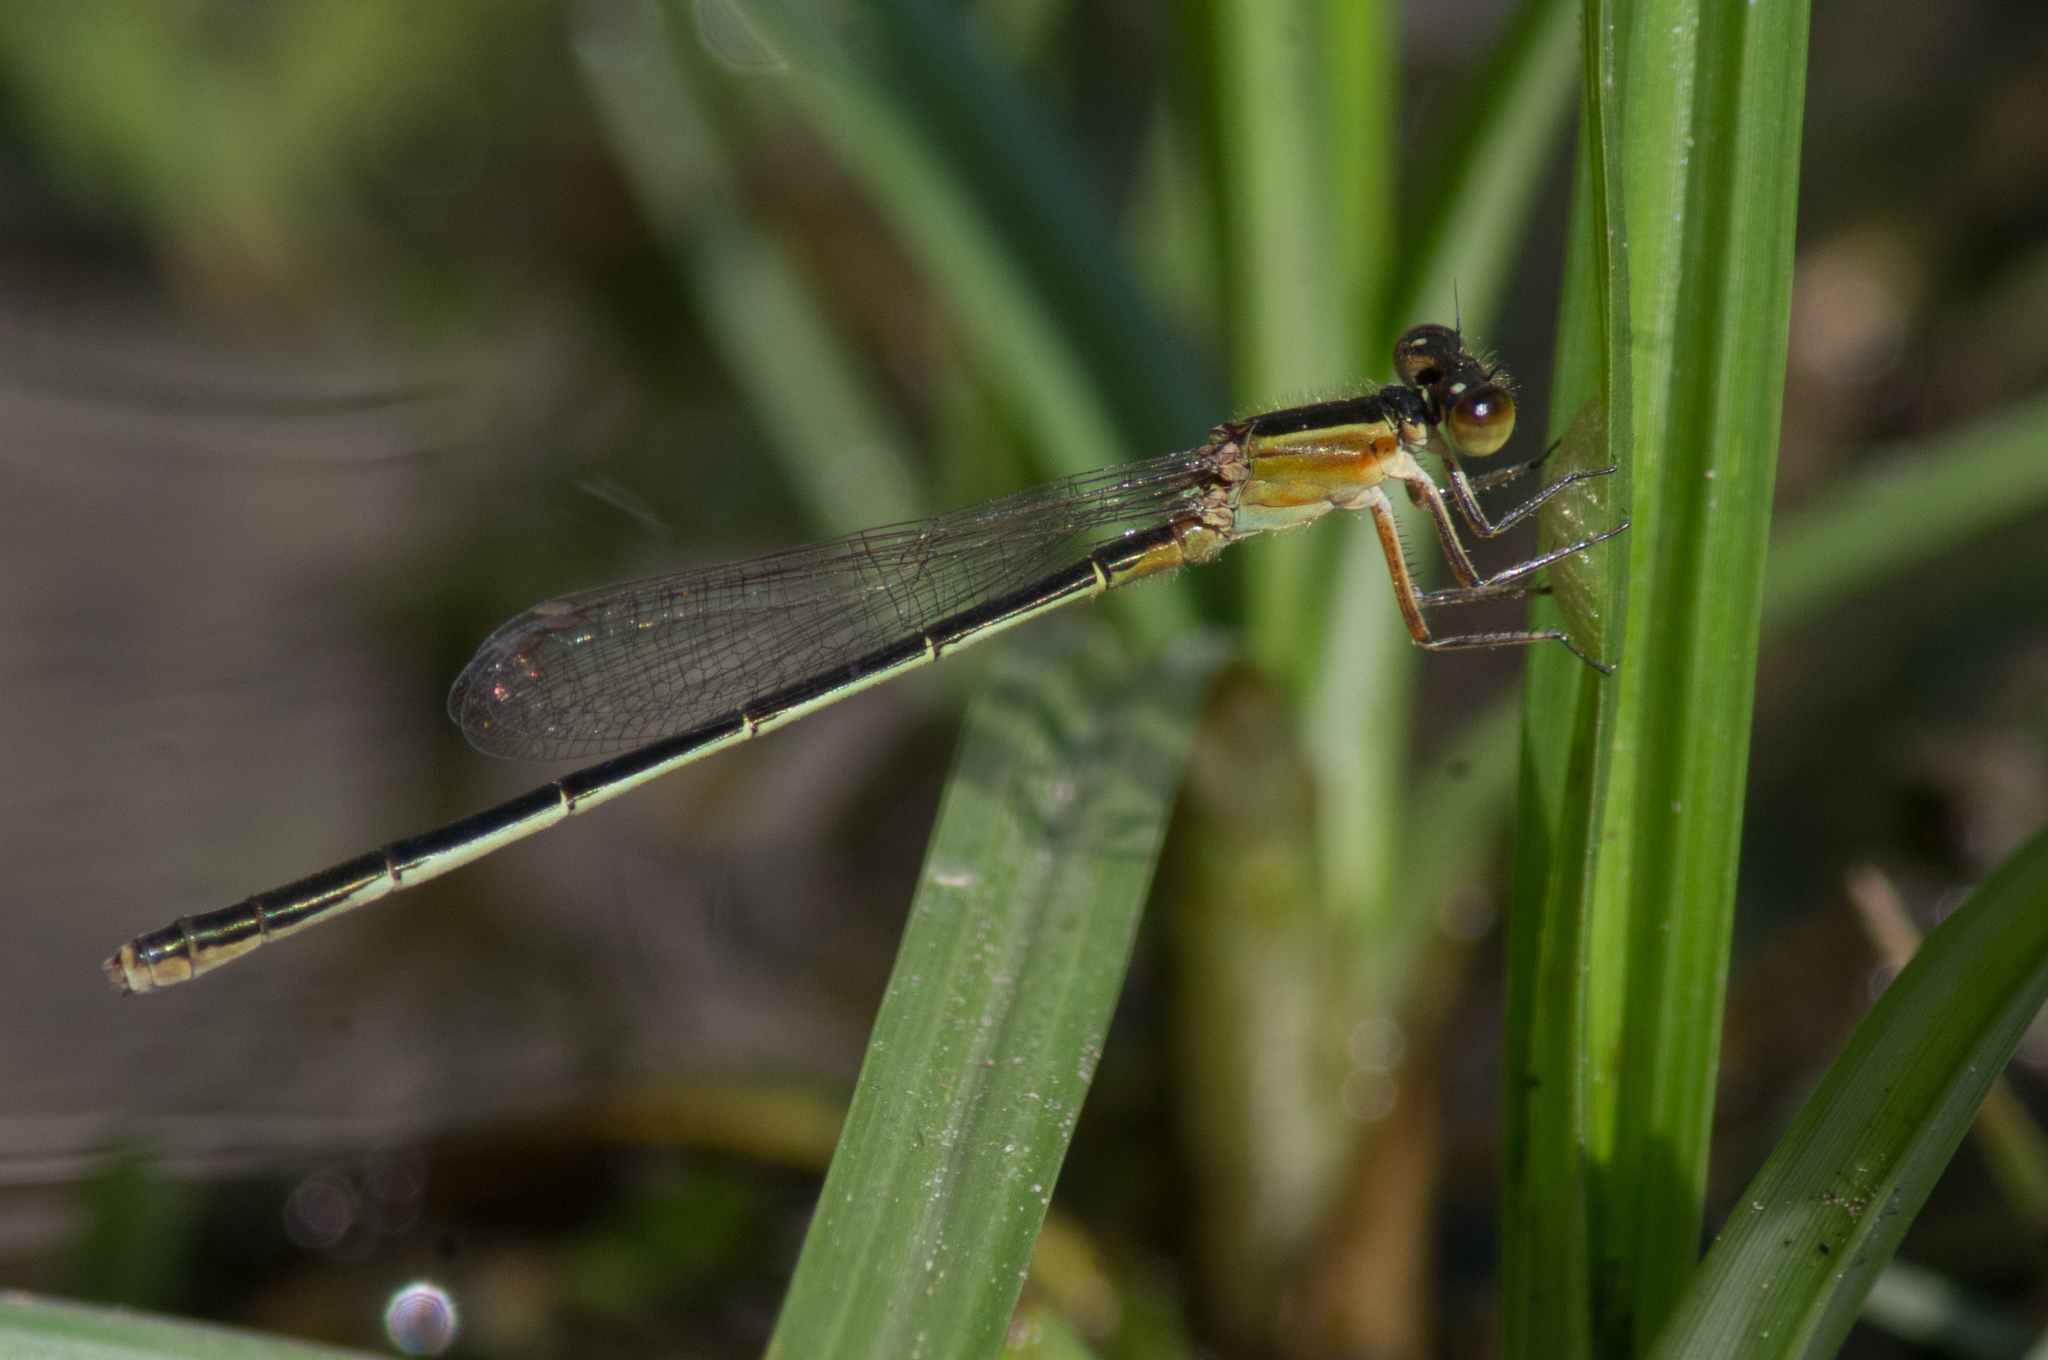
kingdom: Animalia
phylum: Arthropoda
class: Insecta
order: Odonata
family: Coenagrionidae
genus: Ischnura
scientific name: Ischnura ramburii
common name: Rambur's forktail
